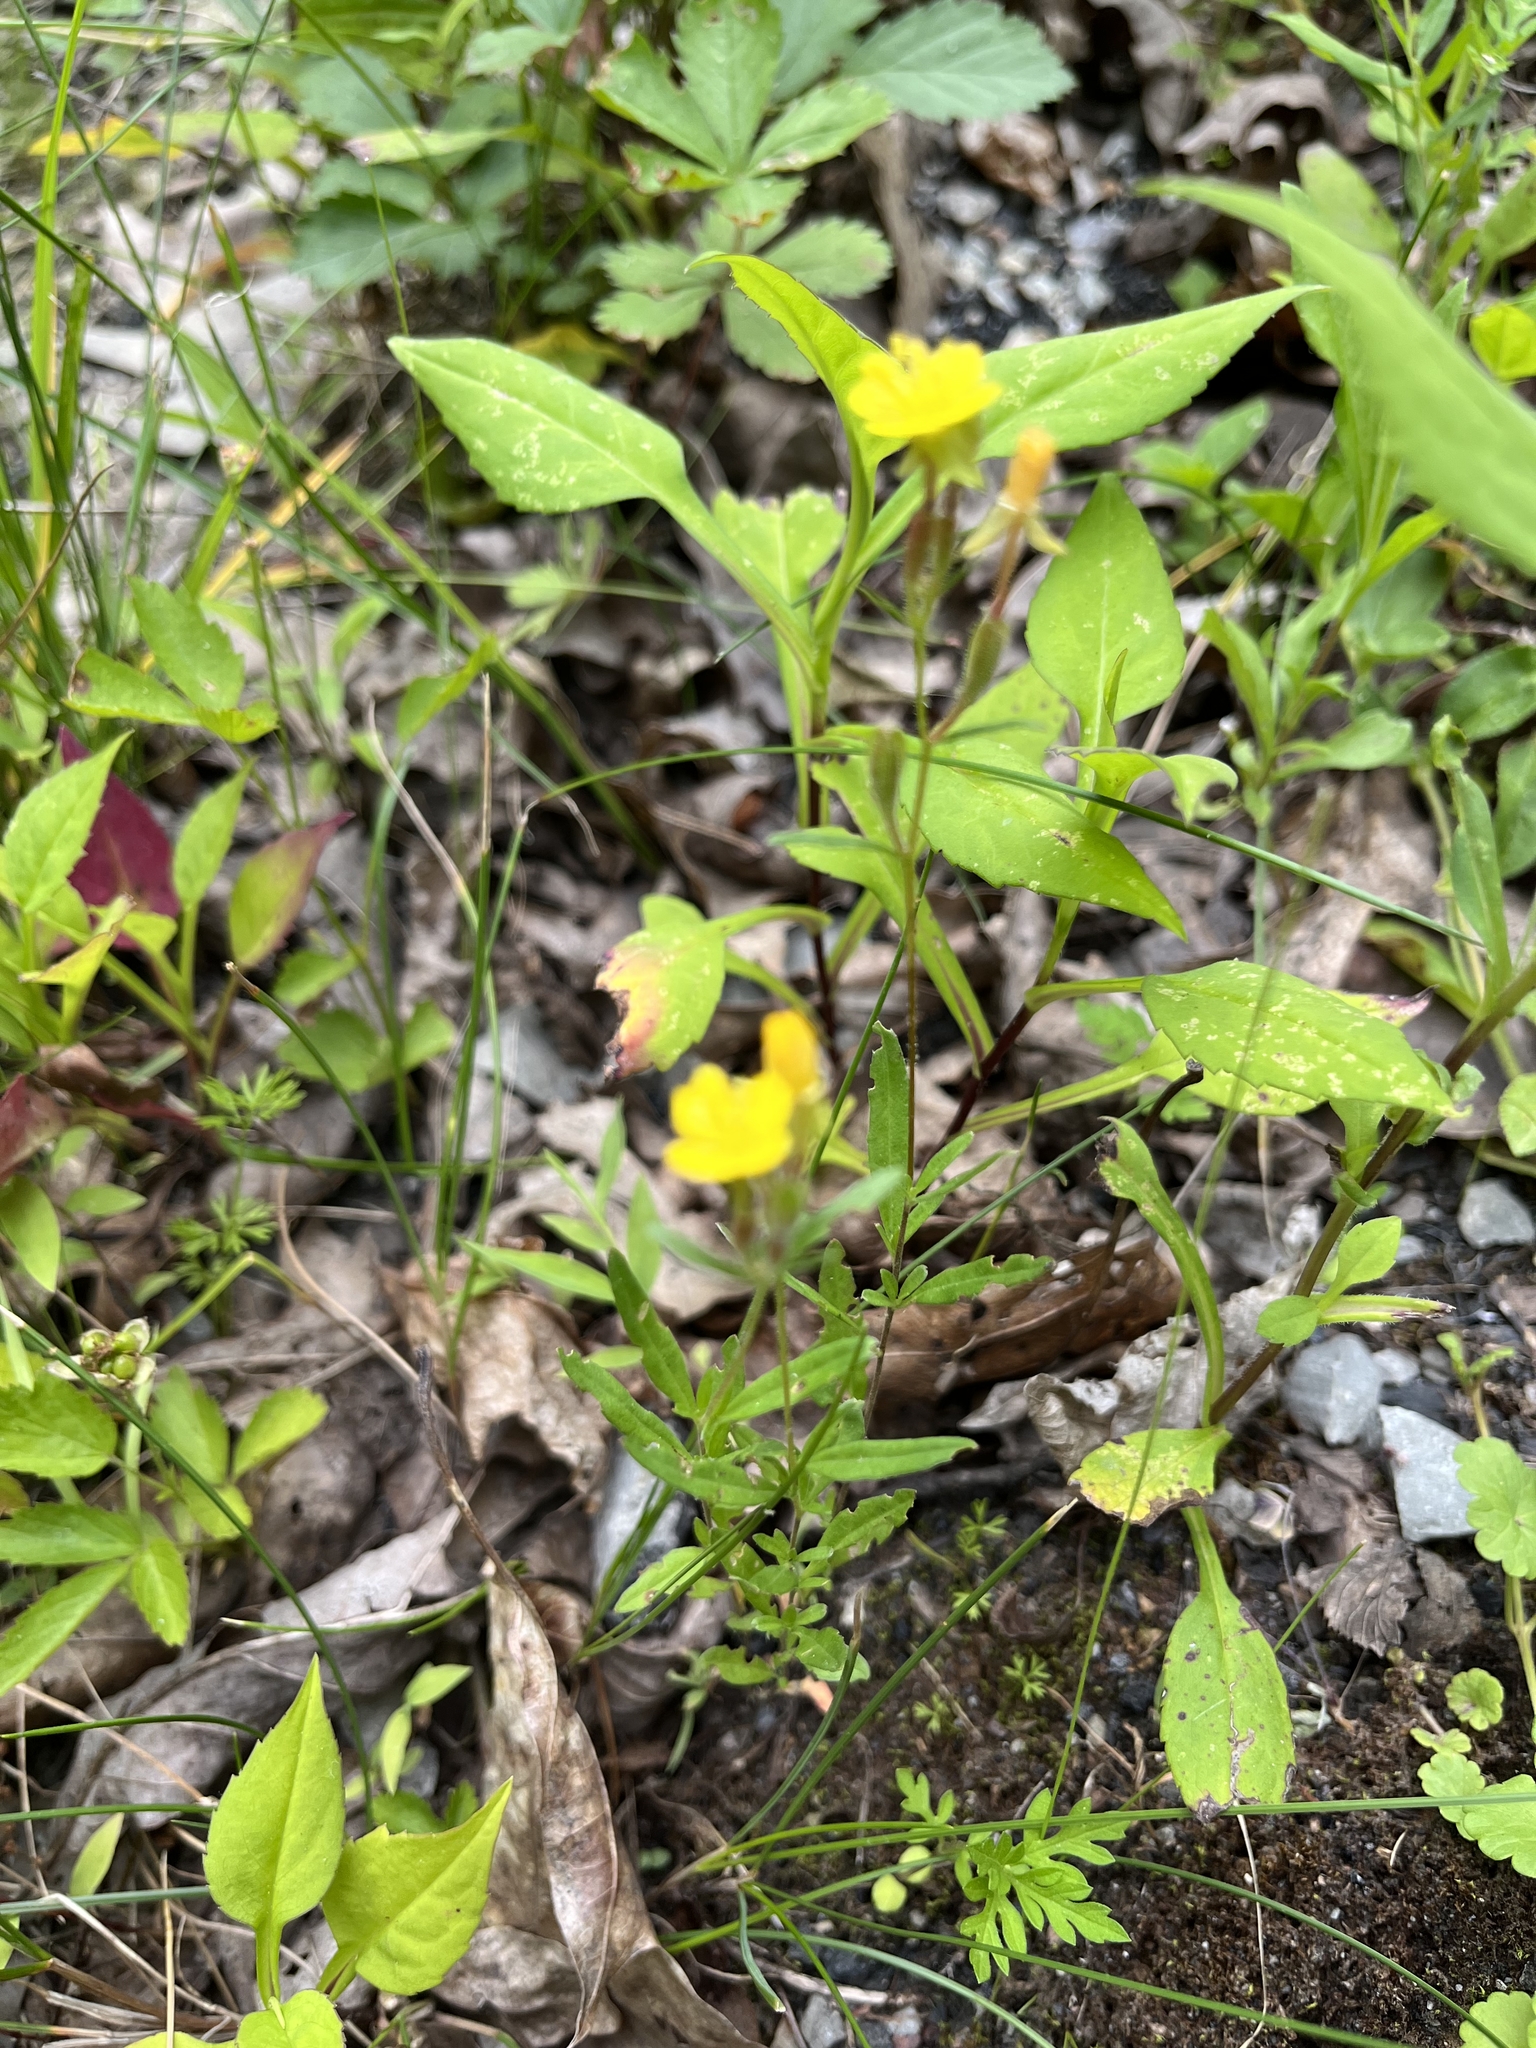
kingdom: Plantae
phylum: Tracheophyta
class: Magnoliopsida
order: Myrtales
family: Onagraceae
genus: Oenothera
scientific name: Oenothera perennis
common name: Small sundrops
